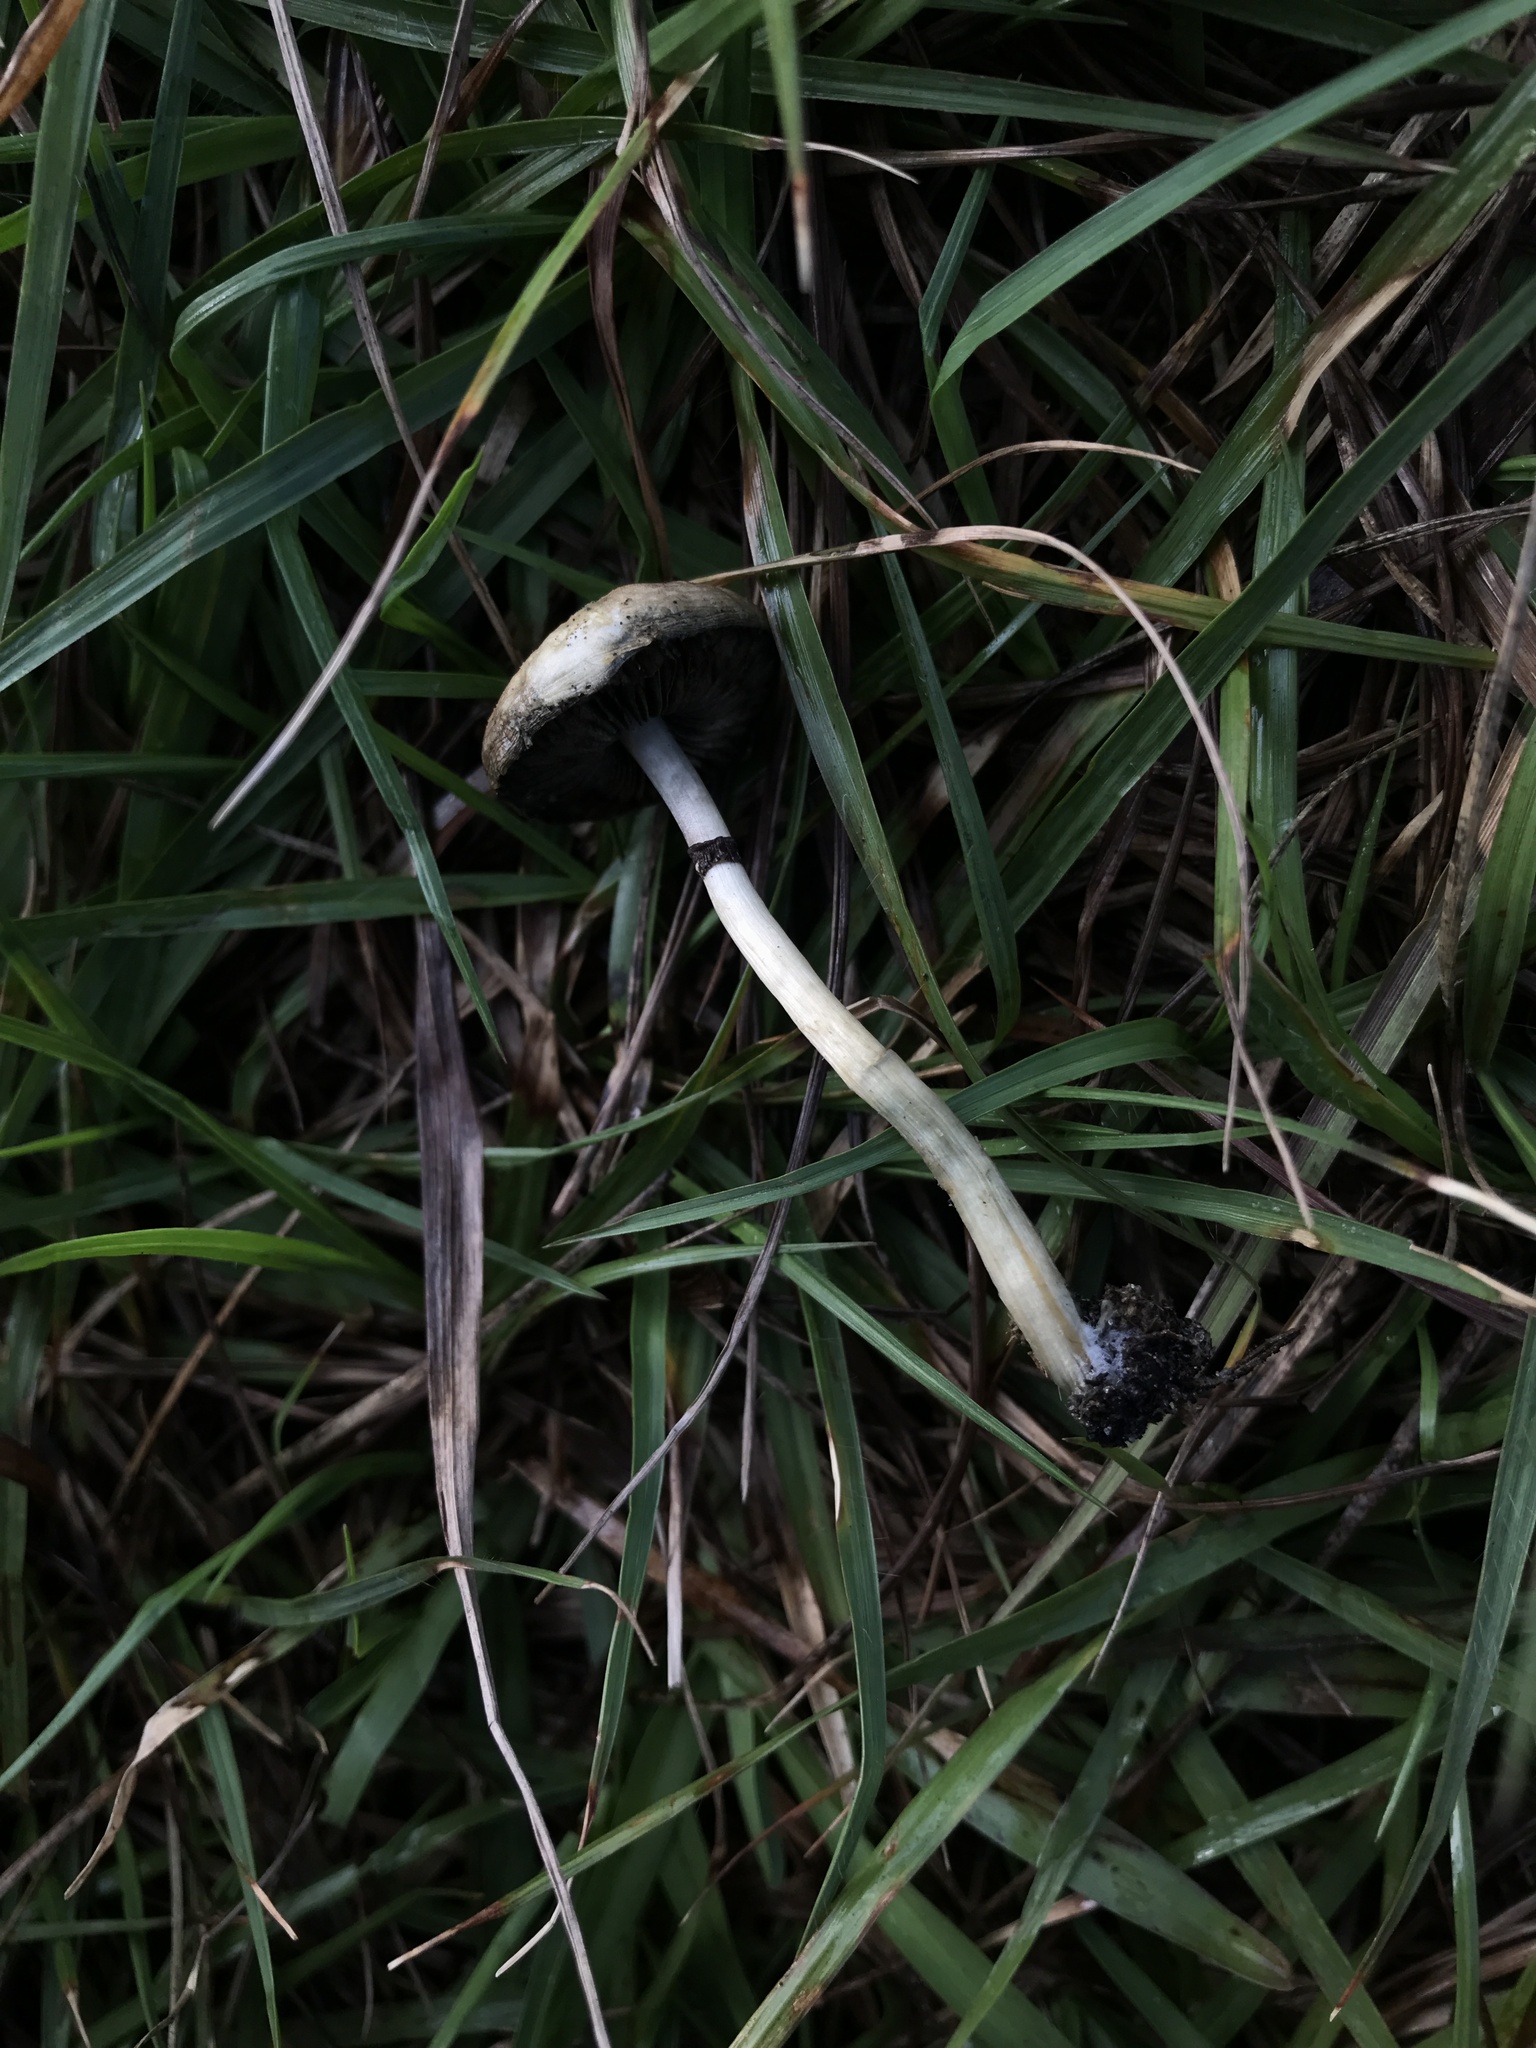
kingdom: Fungi
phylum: Basidiomycota
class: Agaricomycetes
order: Agaricales
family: Hymenogastraceae
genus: Psilocybe
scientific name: Psilocybe cubensis
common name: Golden brownie
